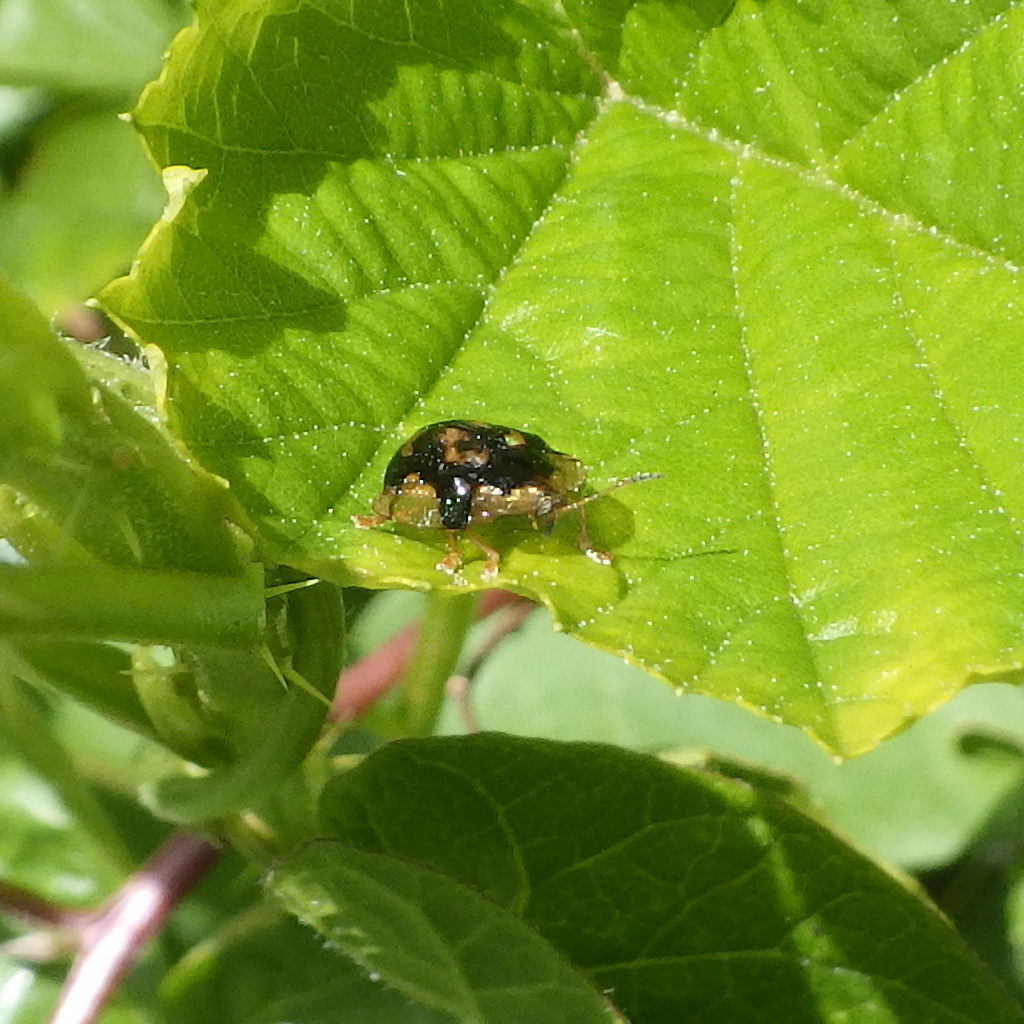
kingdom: Animalia
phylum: Arthropoda
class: Insecta
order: Coleoptera
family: Chrysomelidae
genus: Deloyala
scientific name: Deloyala guttata
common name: Mottled tortoise beetle
